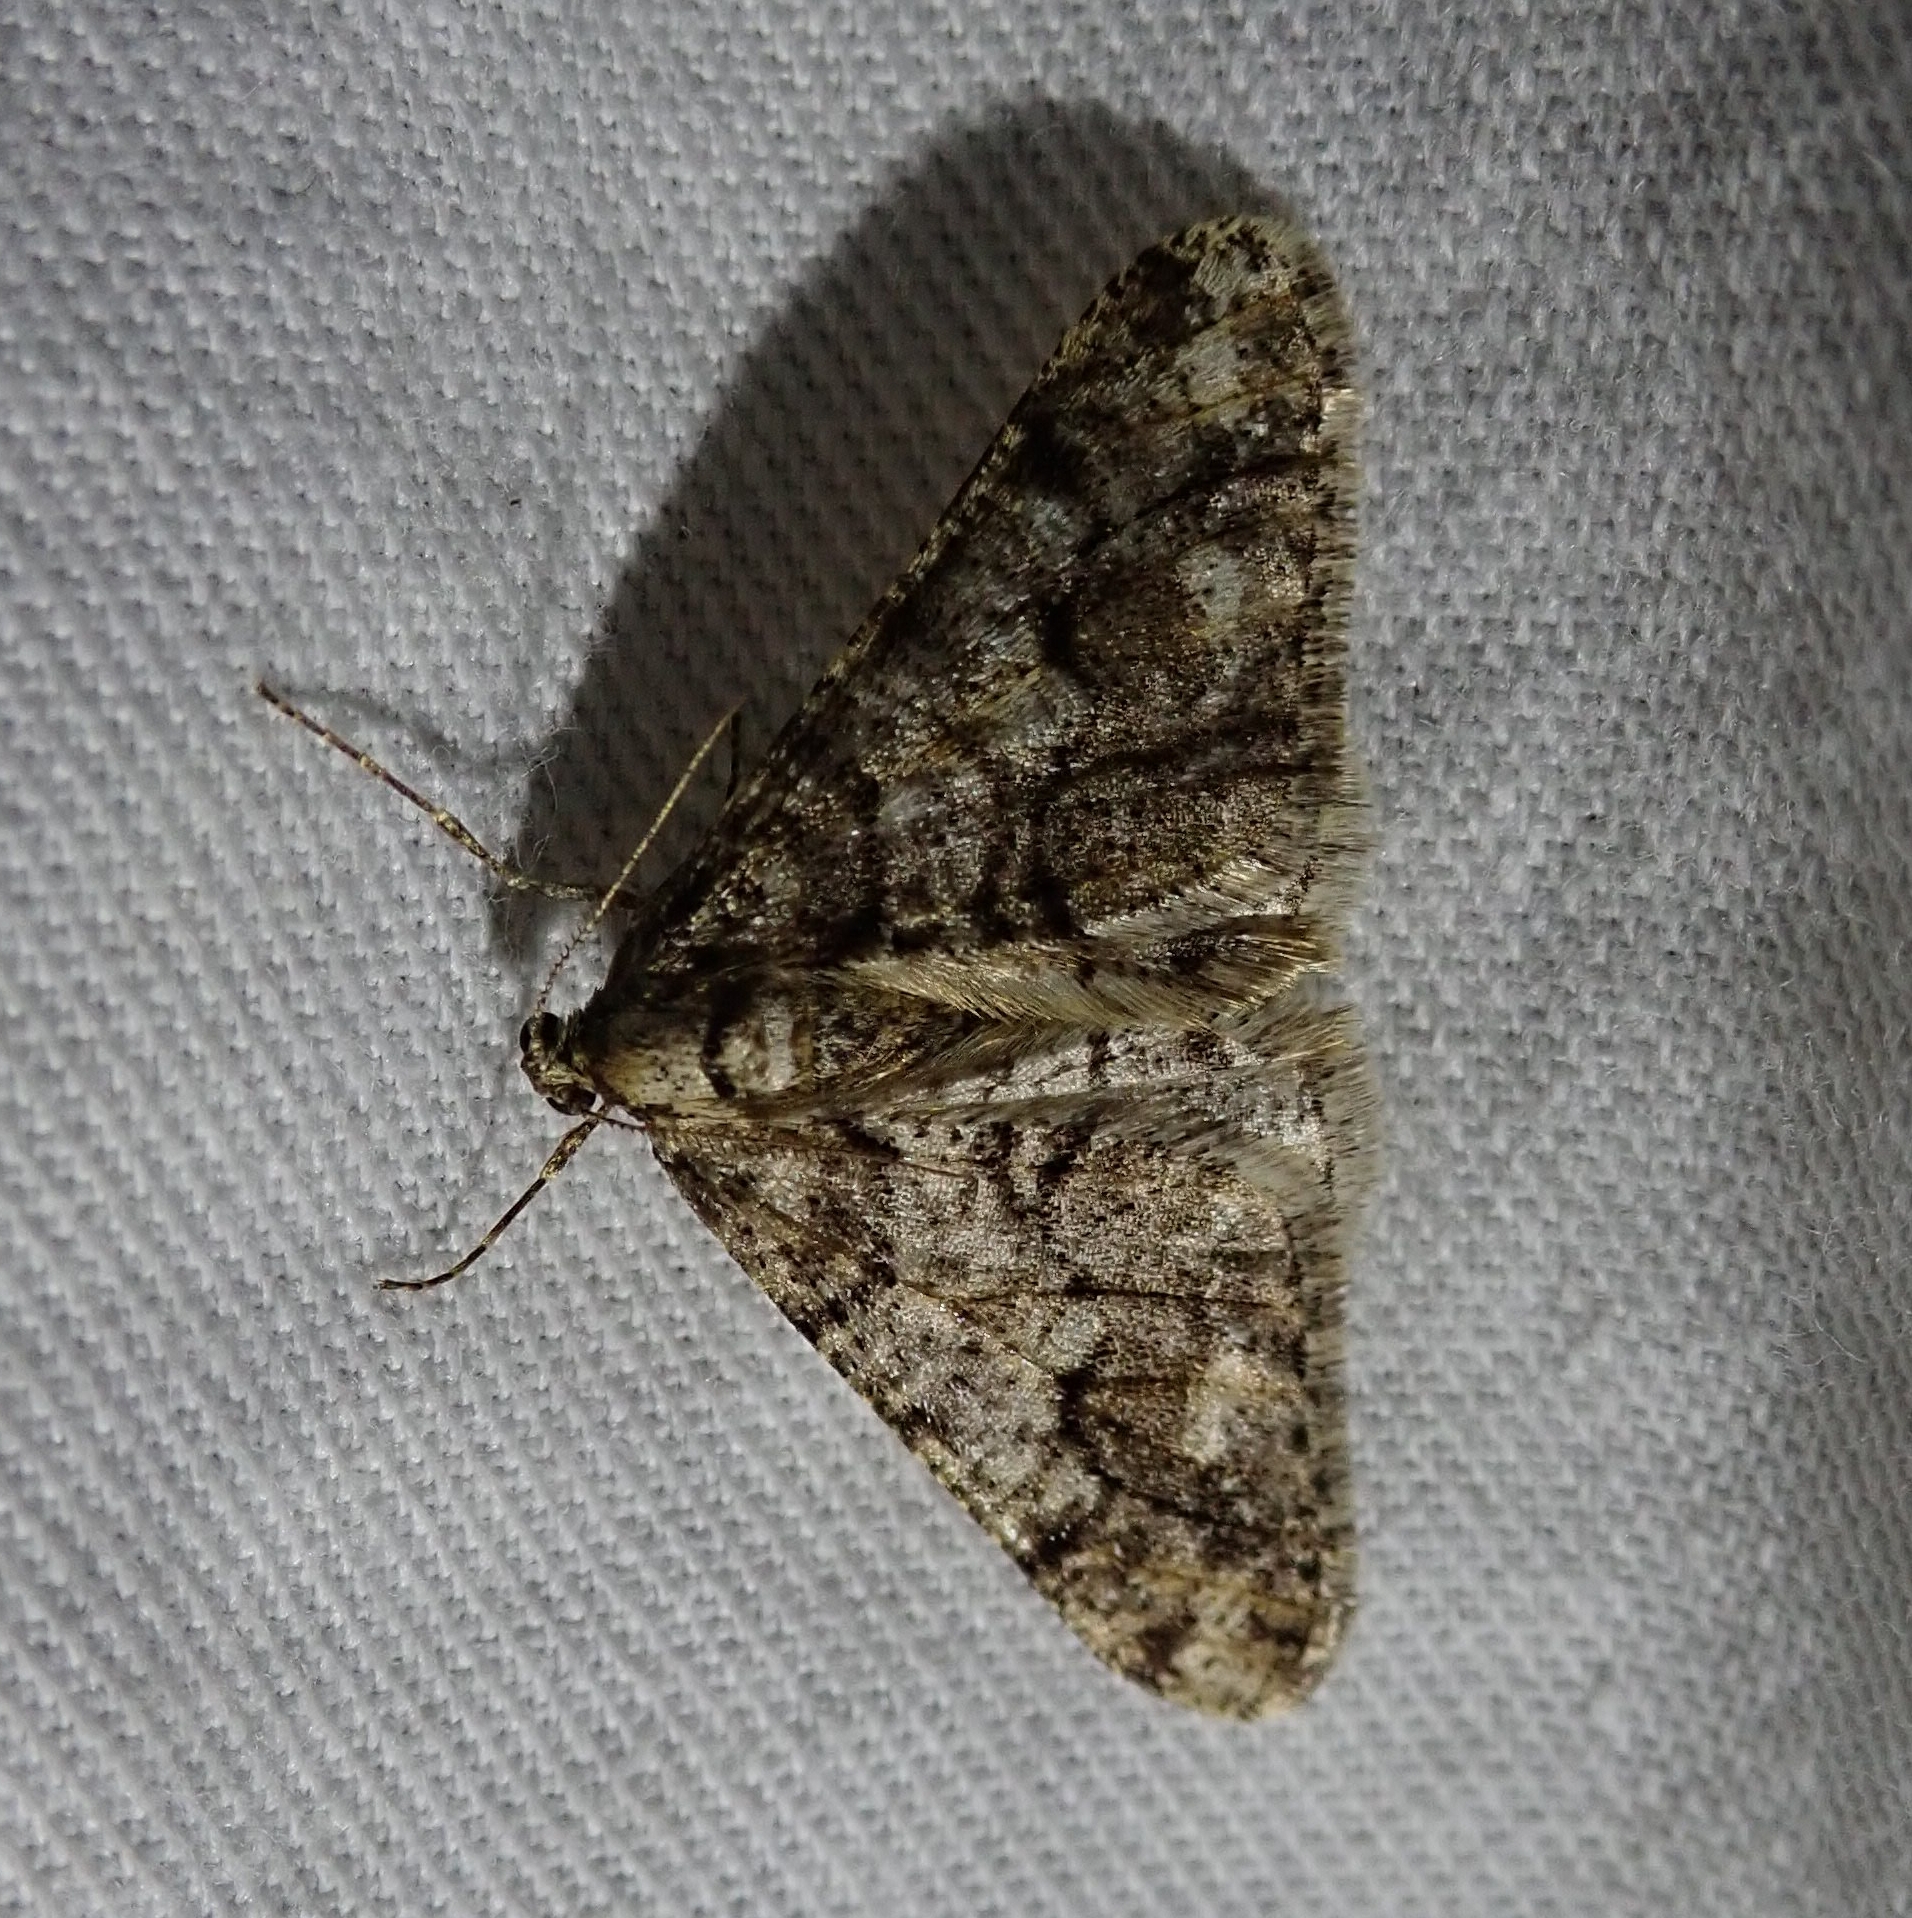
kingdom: Animalia
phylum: Arthropoda
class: Insecta
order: Lepidoptera
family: Geometridae
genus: Agriopis
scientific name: Agriopis leucophaearia
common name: Spring usher
